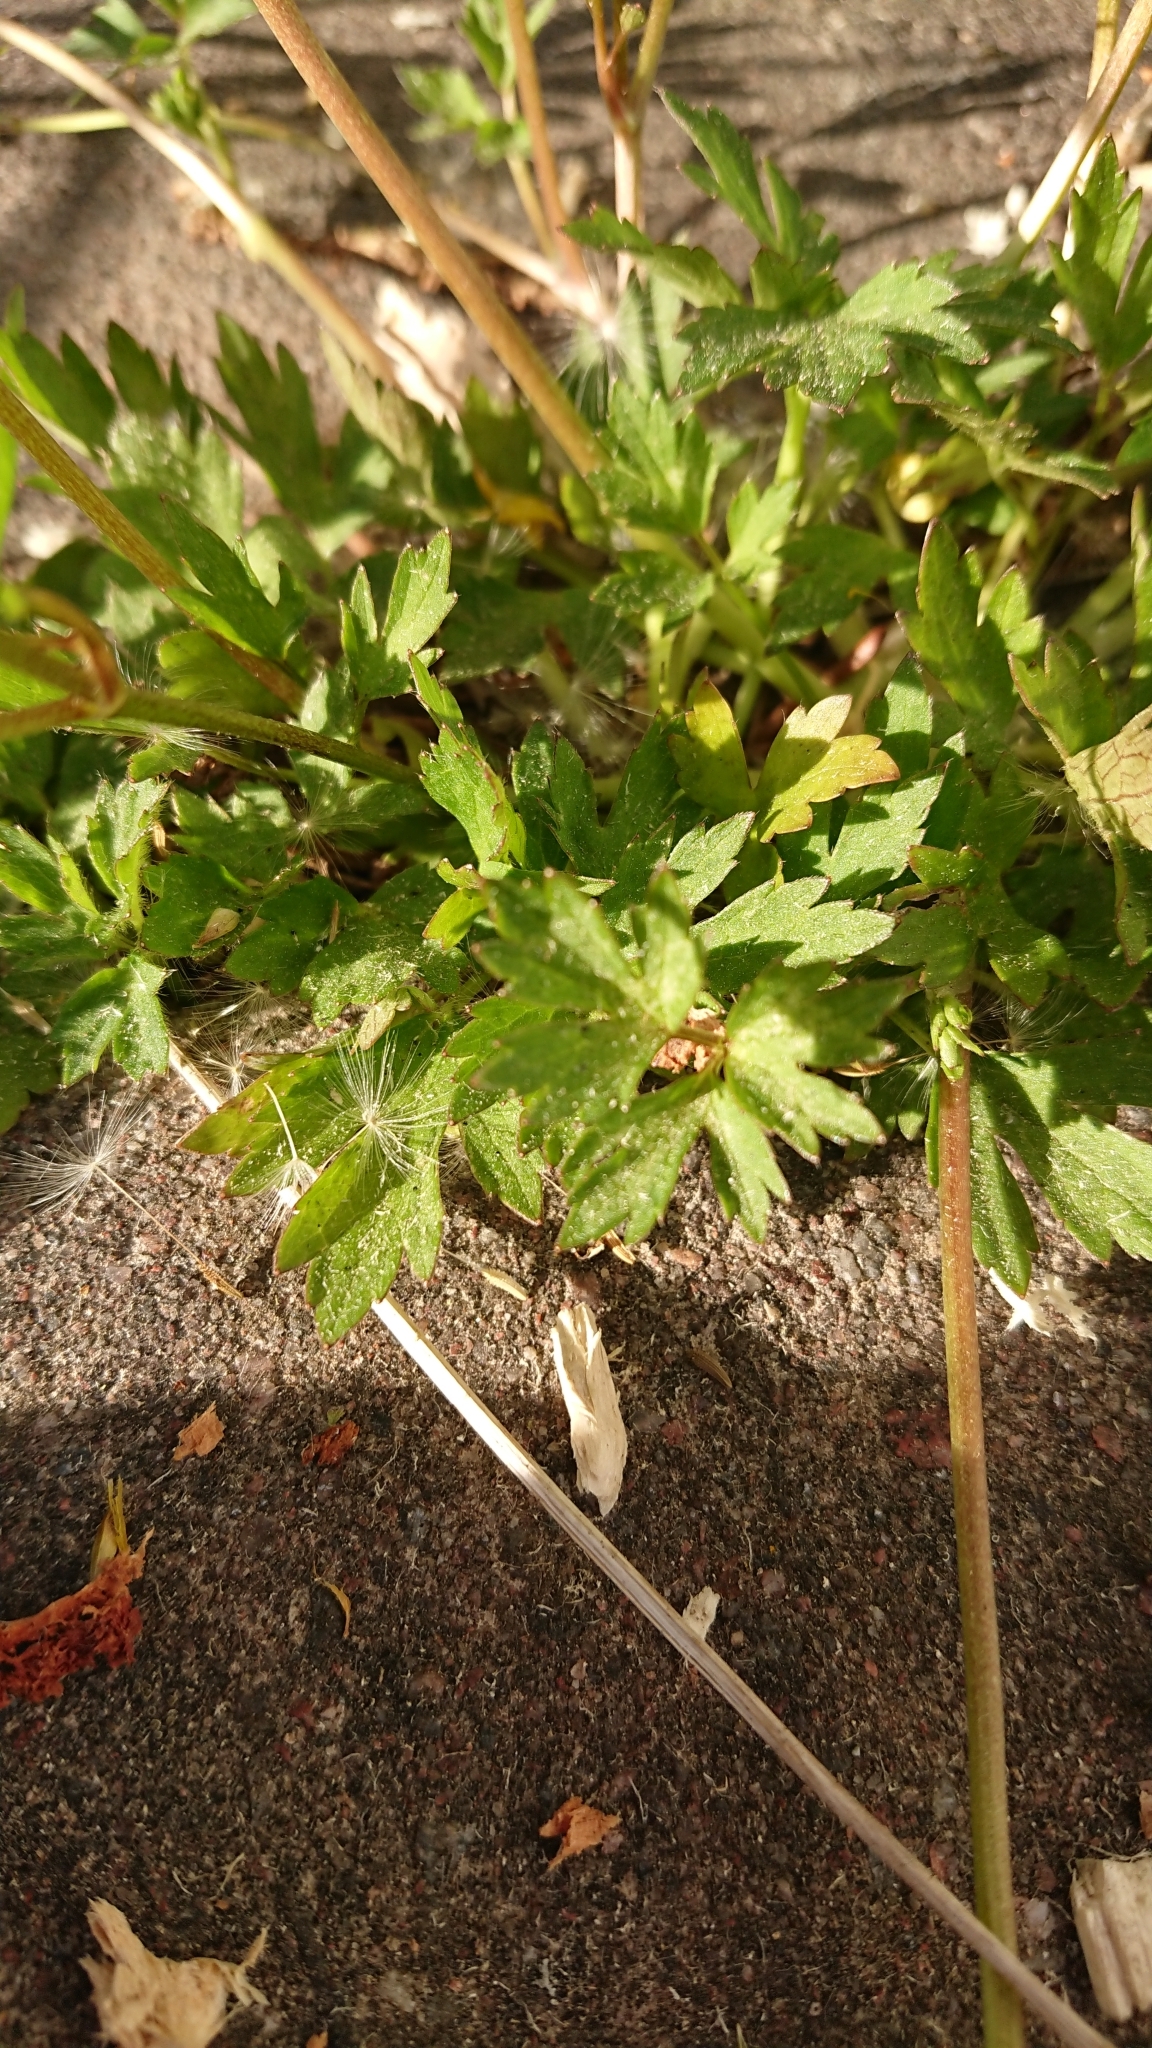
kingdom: Plantae
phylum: Tracheophyta
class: Magnoliopsida
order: Ranunculales
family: Ranunculaceae
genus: Ranunculus
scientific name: Ranunculus repens
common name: Creeping buttercup
